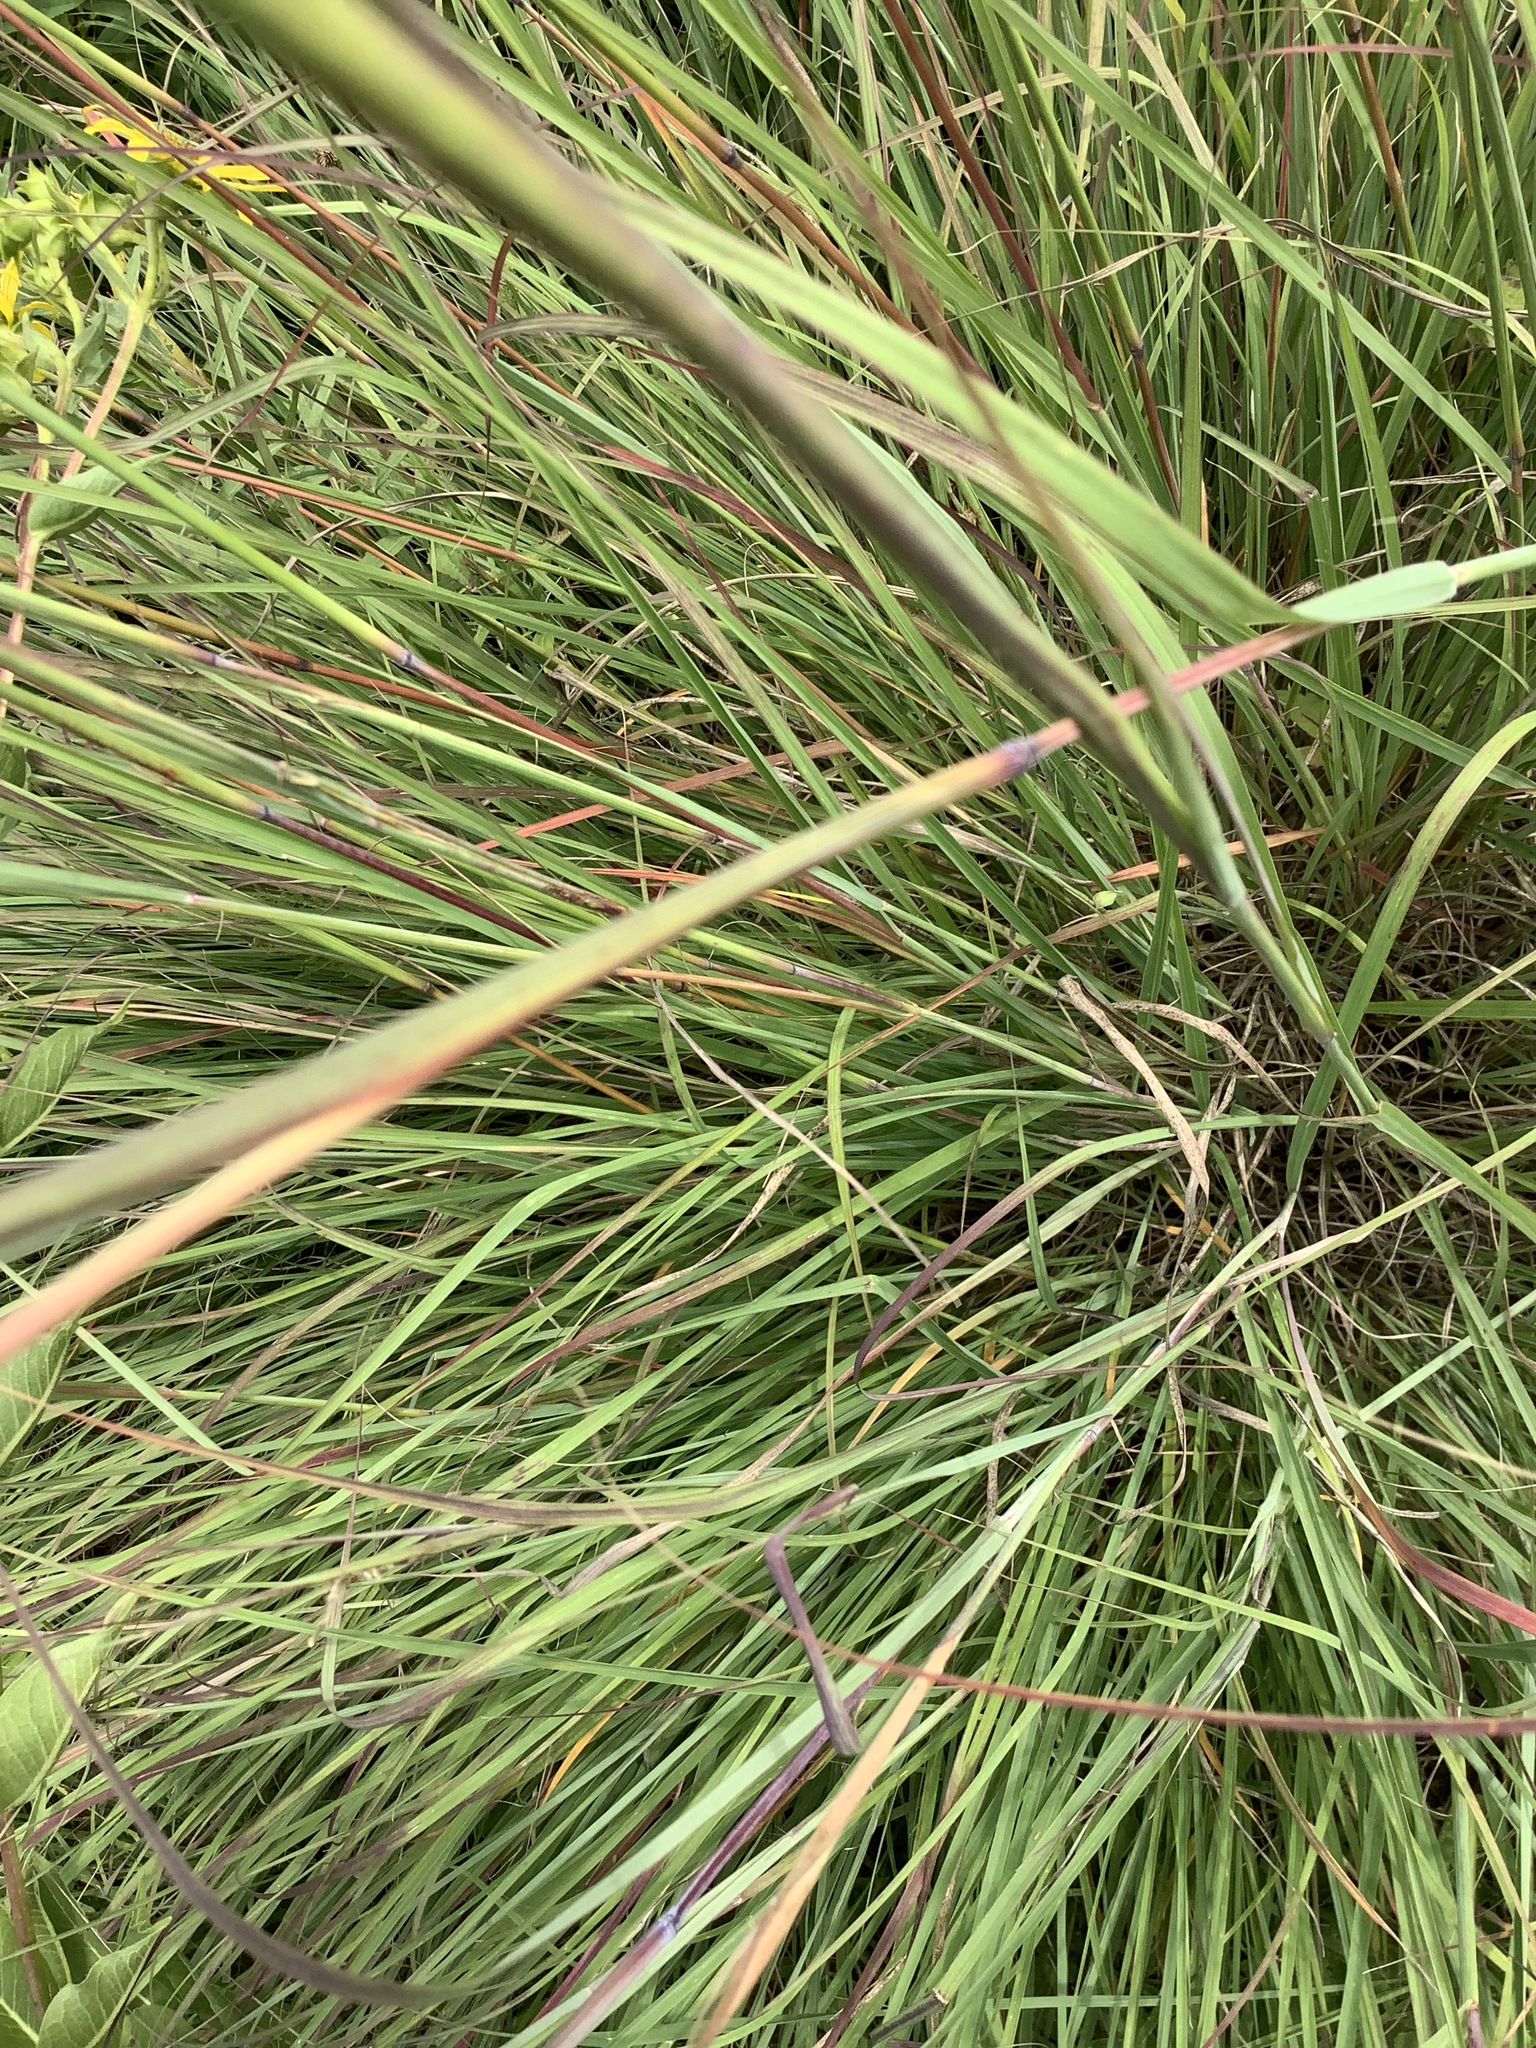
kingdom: Plantae
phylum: Tracheophyta
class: Liliopsida
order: Poales
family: Poaceae
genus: Andropogon
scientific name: Andropogon gerardi
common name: Big bluestem
